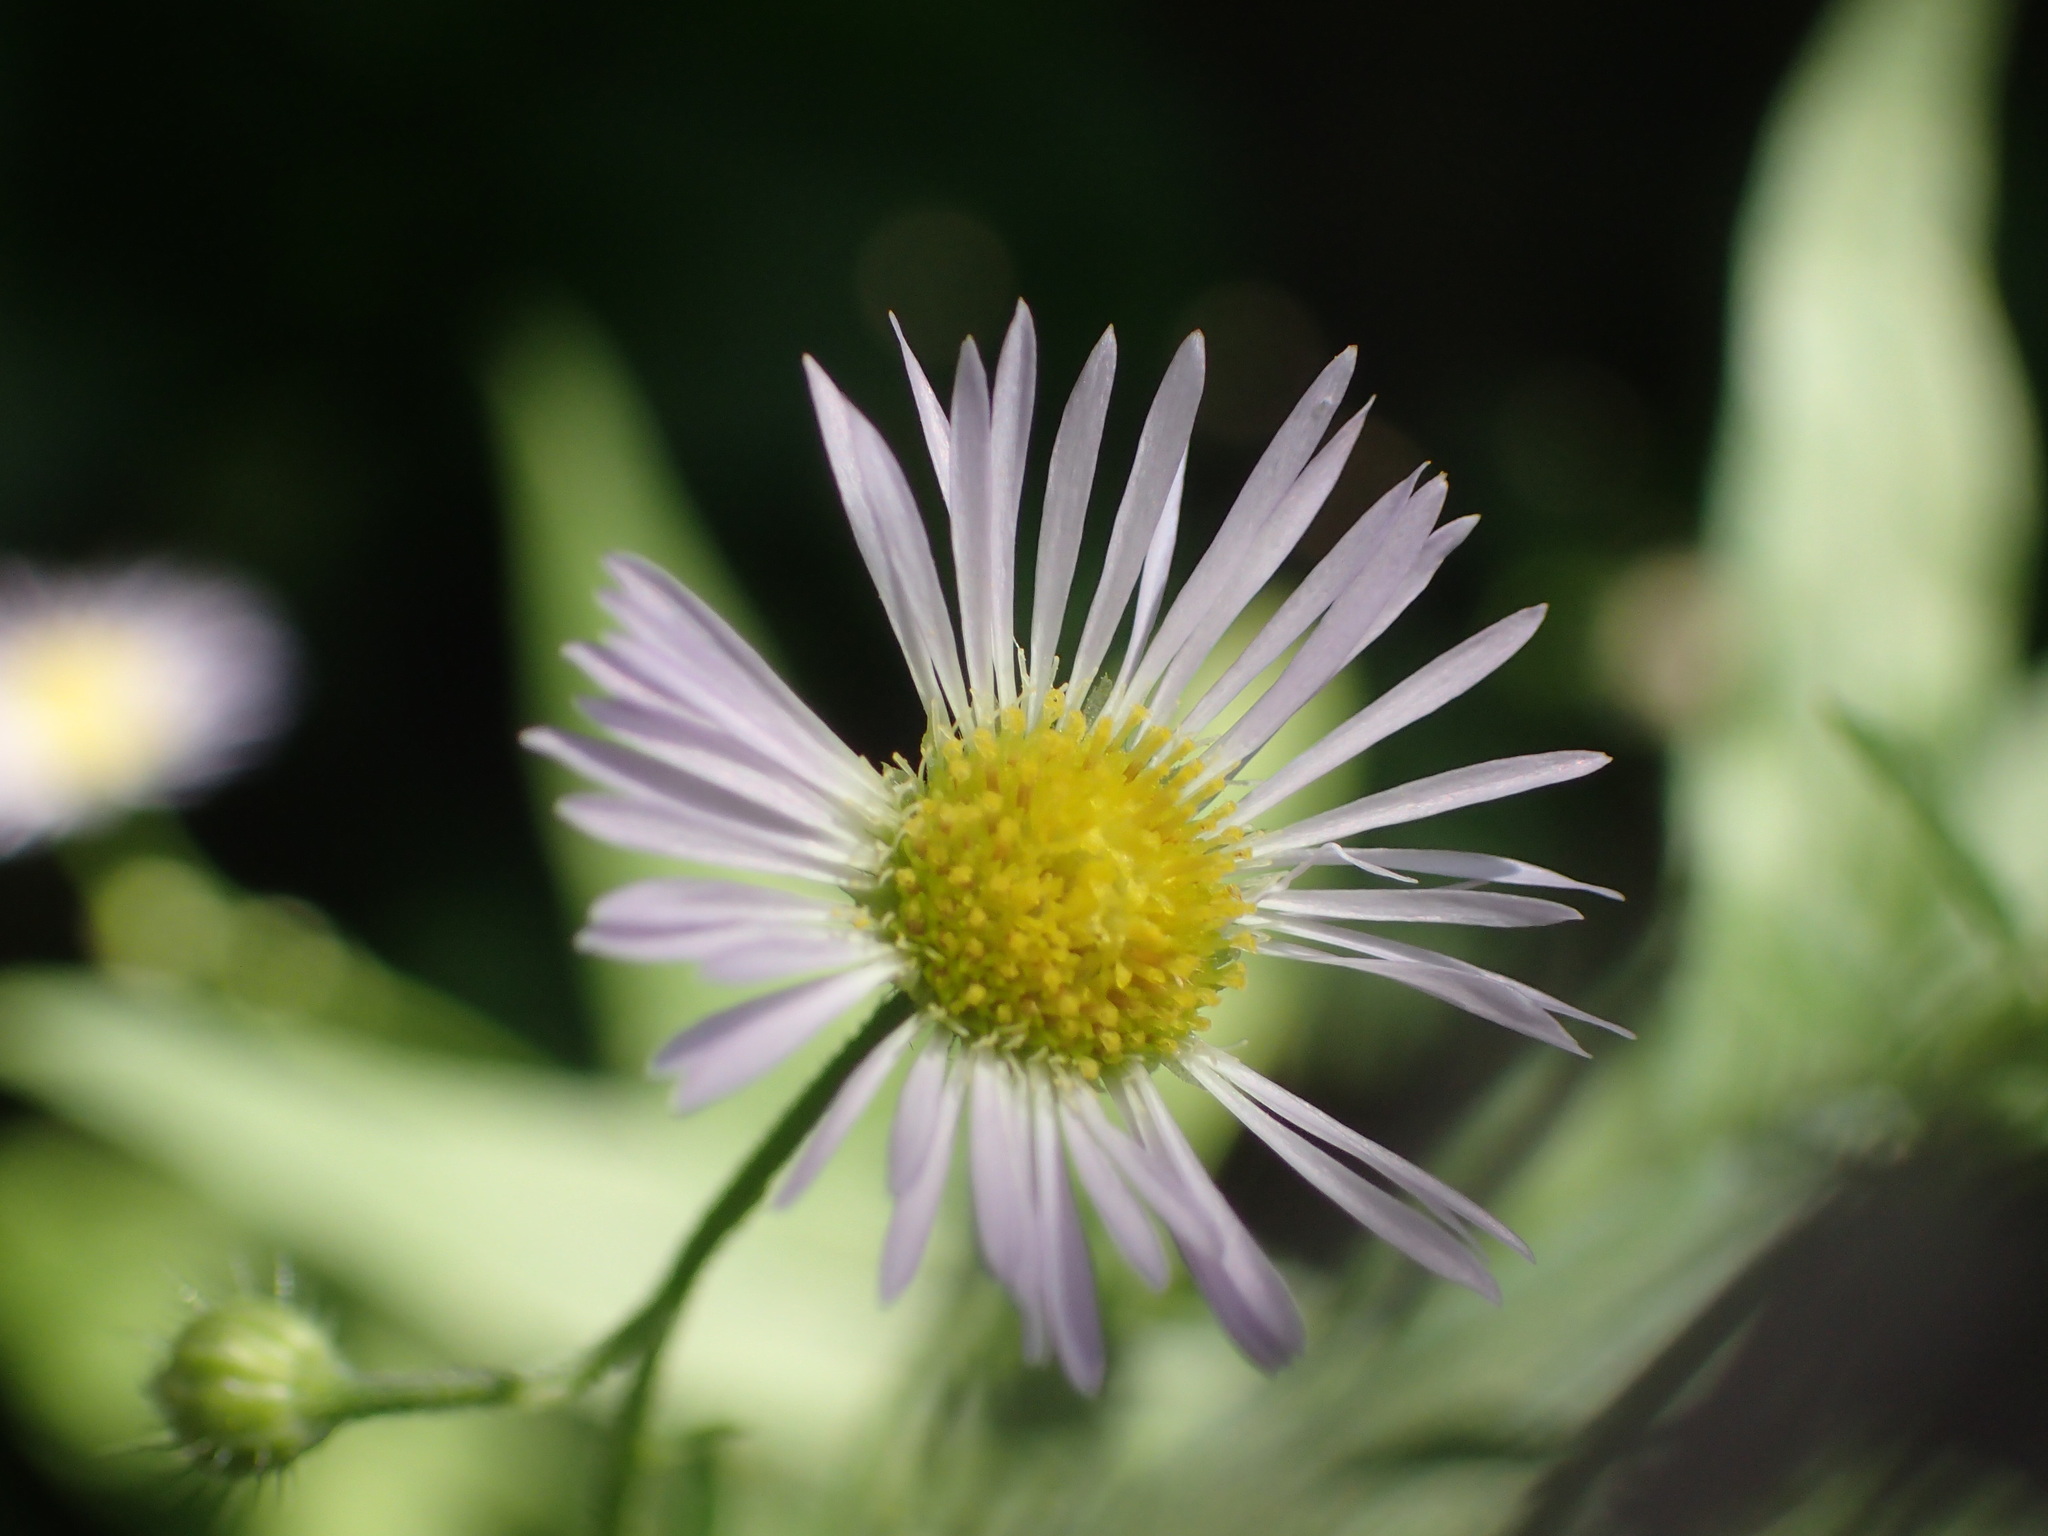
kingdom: Plantae
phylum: Tracheophyta
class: Magnoliopsida
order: Asterales
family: Asteraceae
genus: Erigeron
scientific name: Erigeron annuus
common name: Tall fleabane
